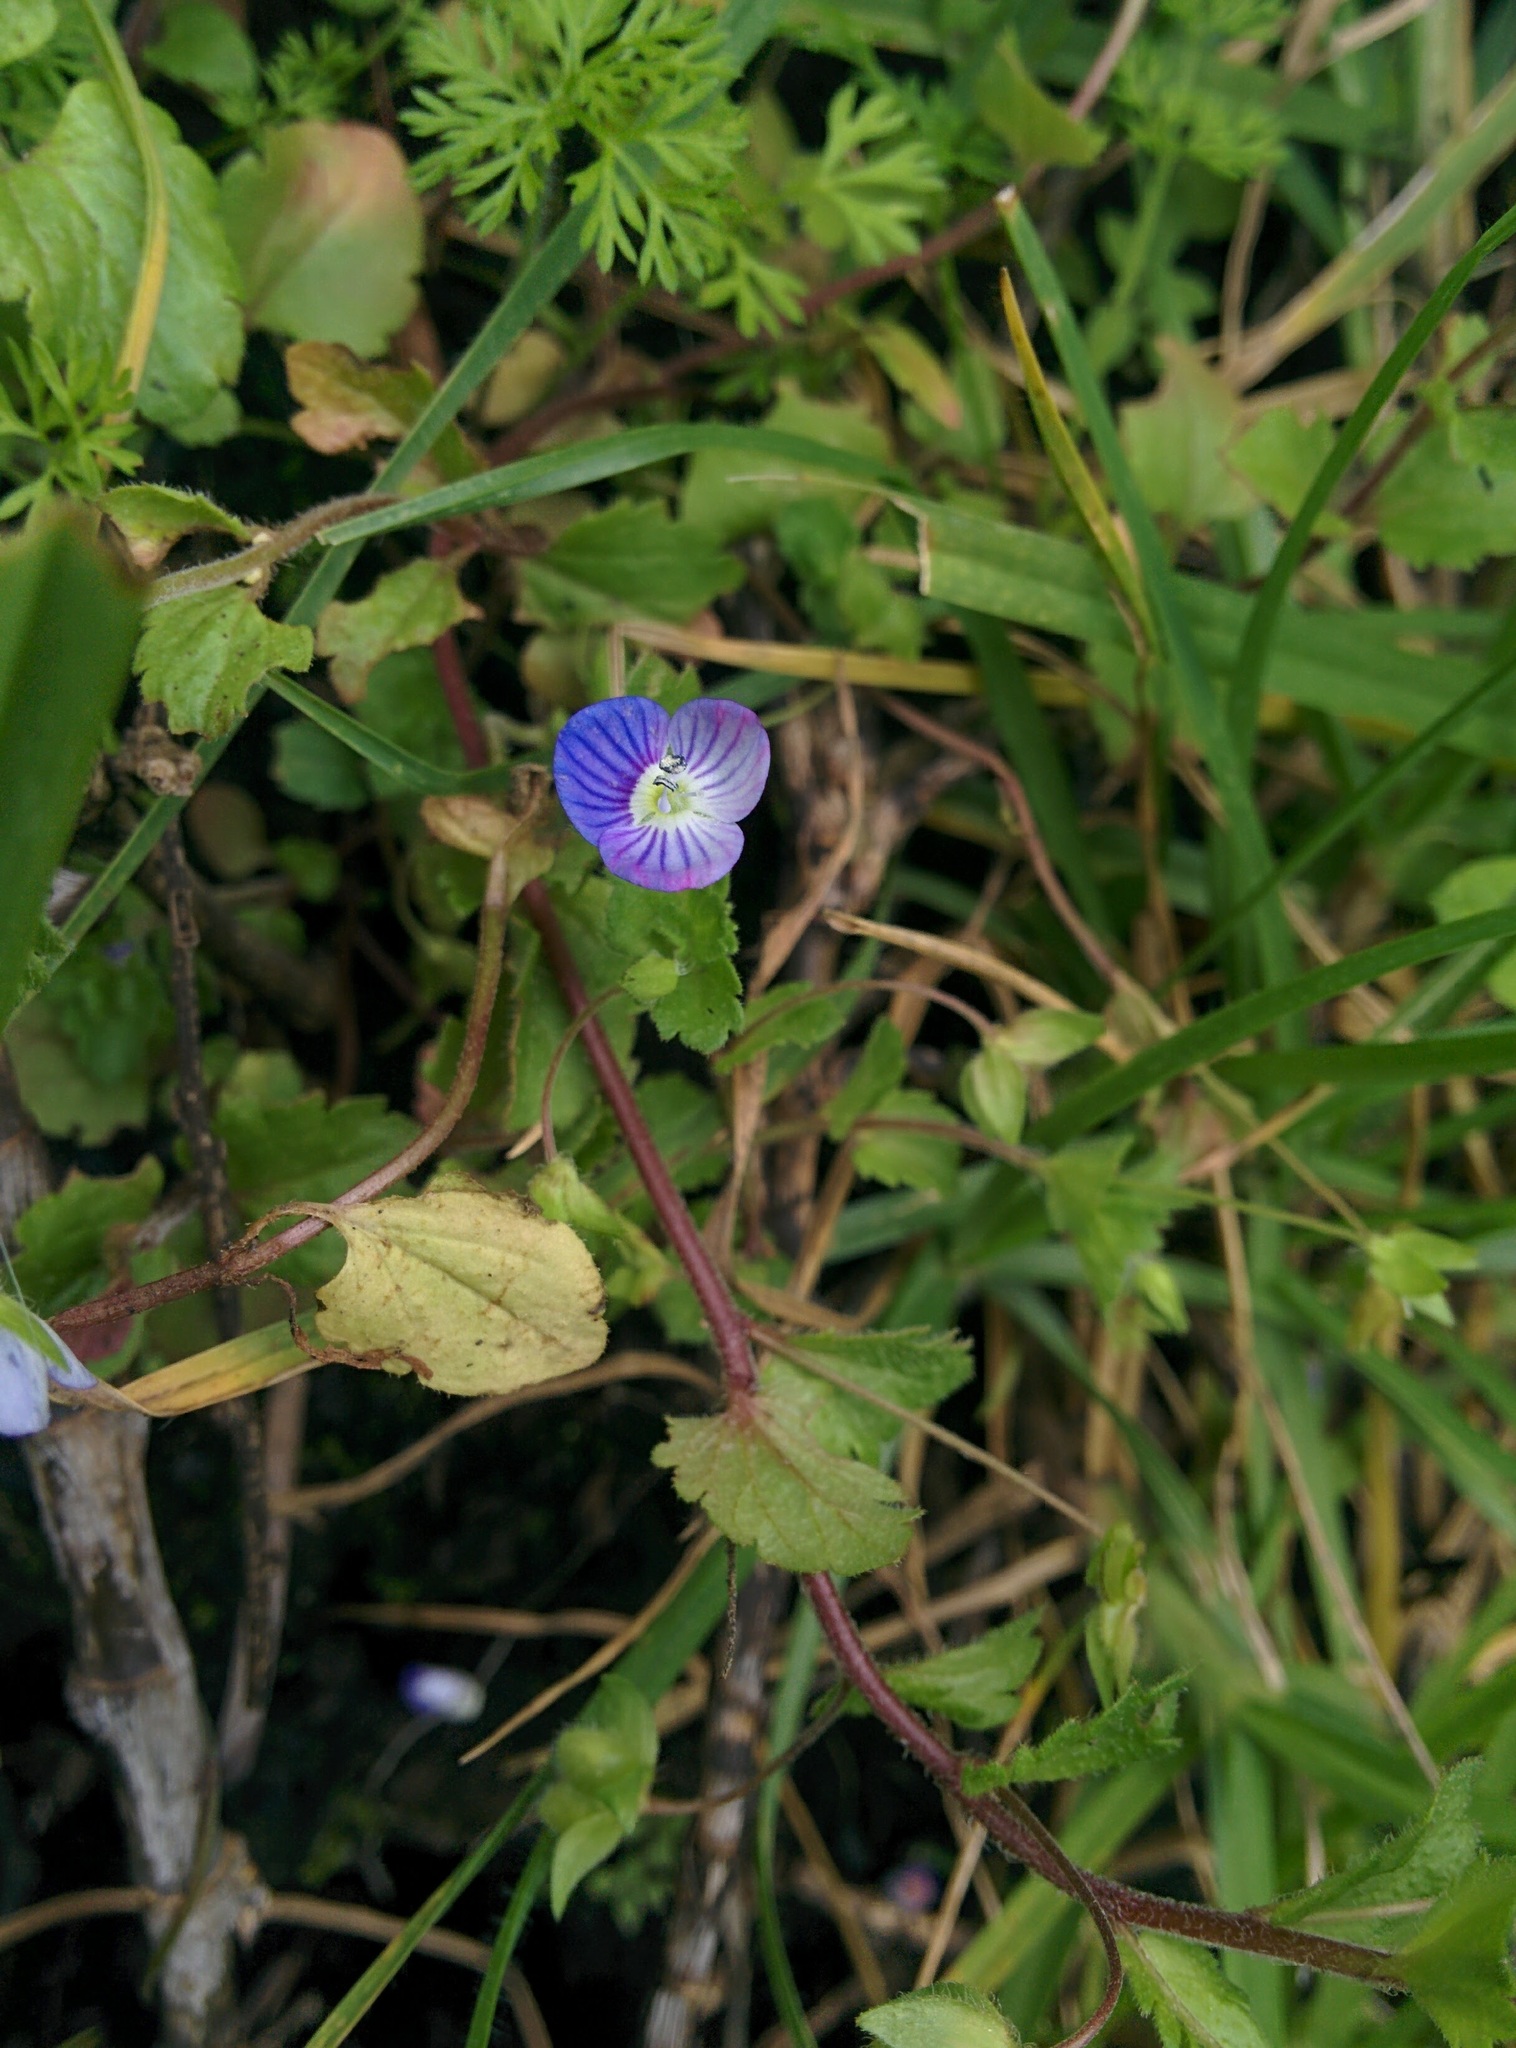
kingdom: Plantae
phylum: Tracheophyta
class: Magnoliopsida
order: Lamiales
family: Plantaginaceae
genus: Veronica
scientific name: Veronica persica
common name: Common field-speedwell
